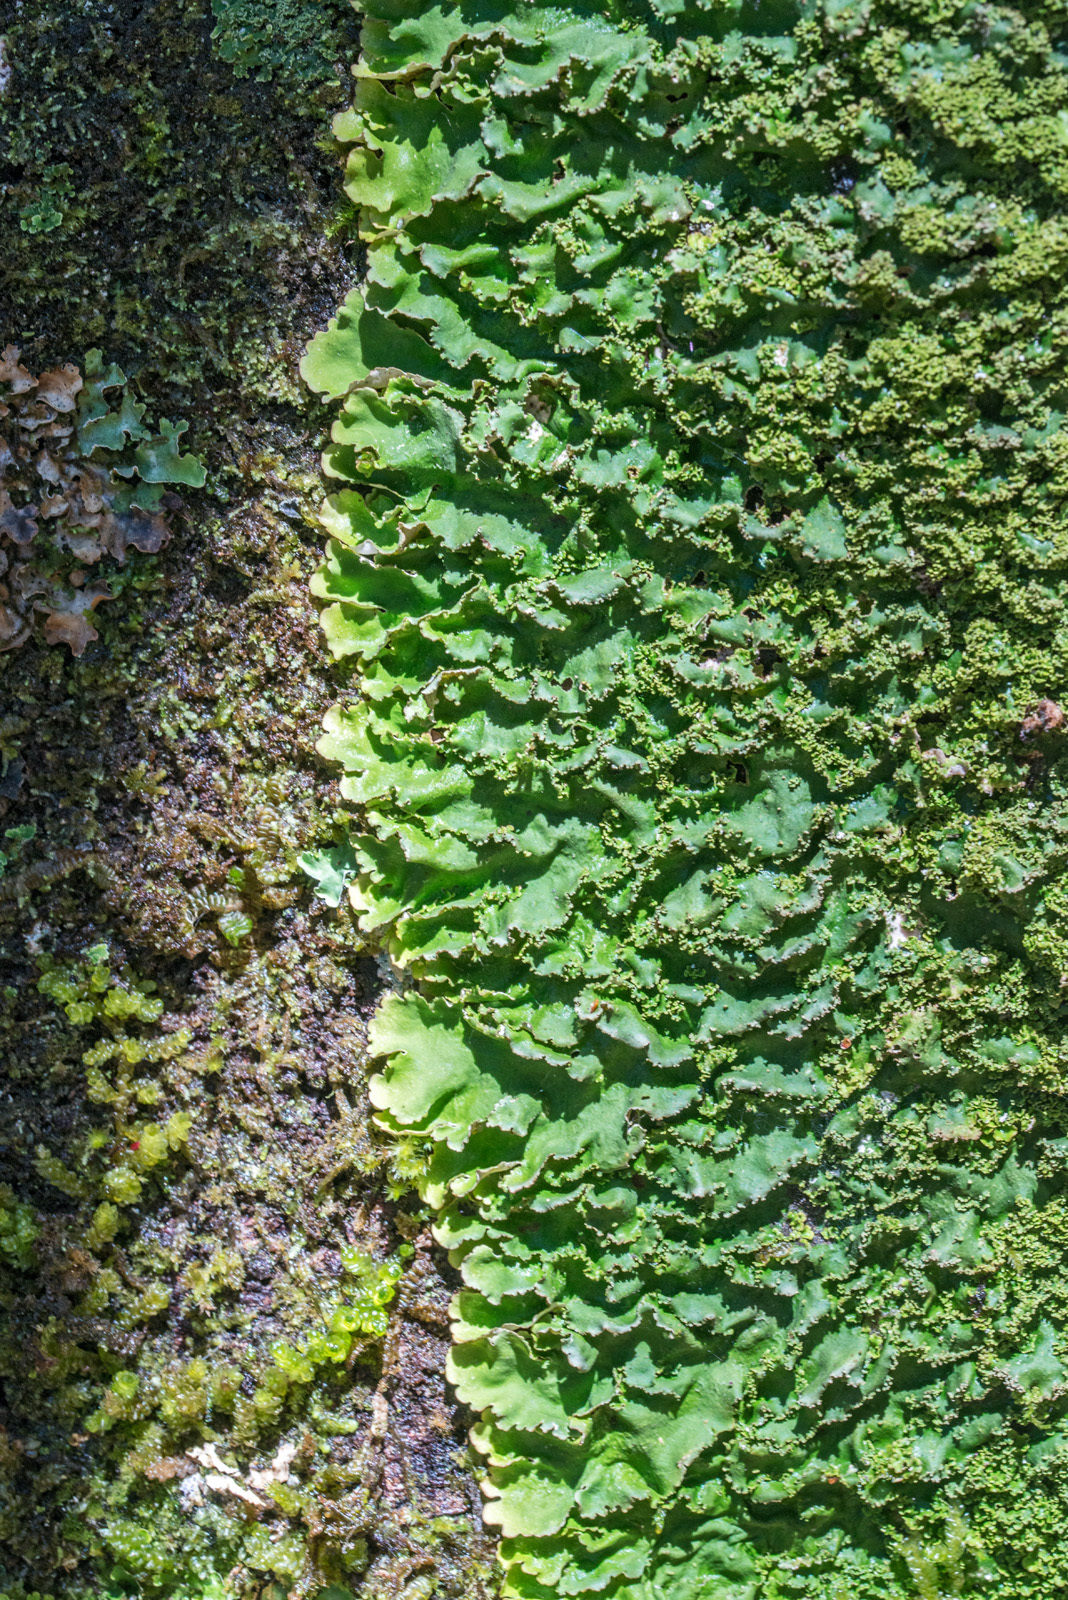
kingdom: Fungi
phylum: Ascomycota
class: Lecanoromycetes
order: Peltigerales
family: Lobariaceae
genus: Podostictina
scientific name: Podostictina pickeringii
